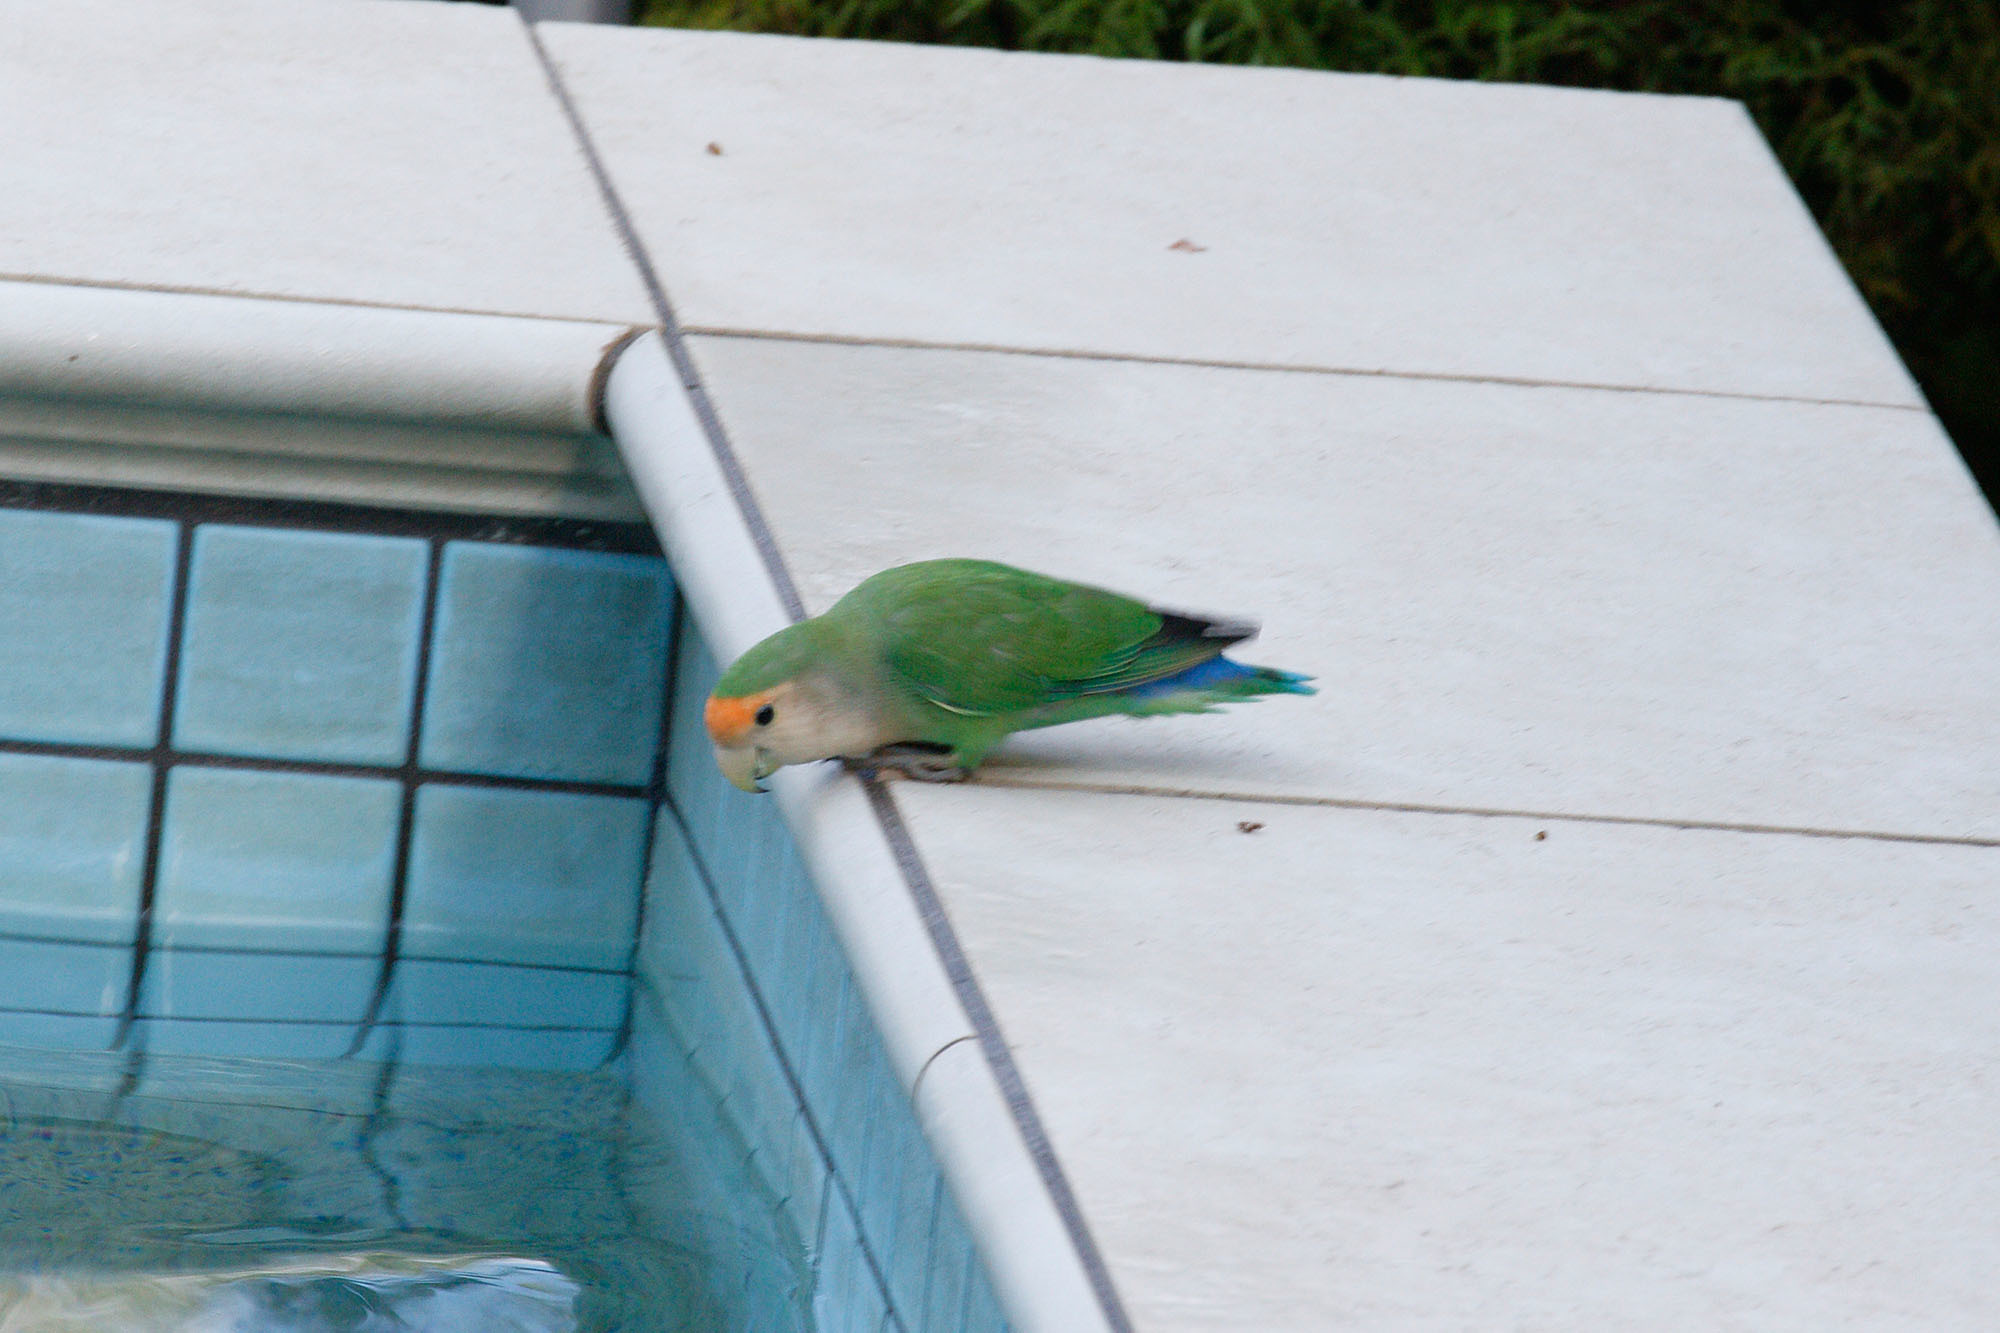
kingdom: Animalia
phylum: Chordata
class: Aves
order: Psittaciformes
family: Psittacidae
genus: Agapornis
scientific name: Agapornis roseicollis
